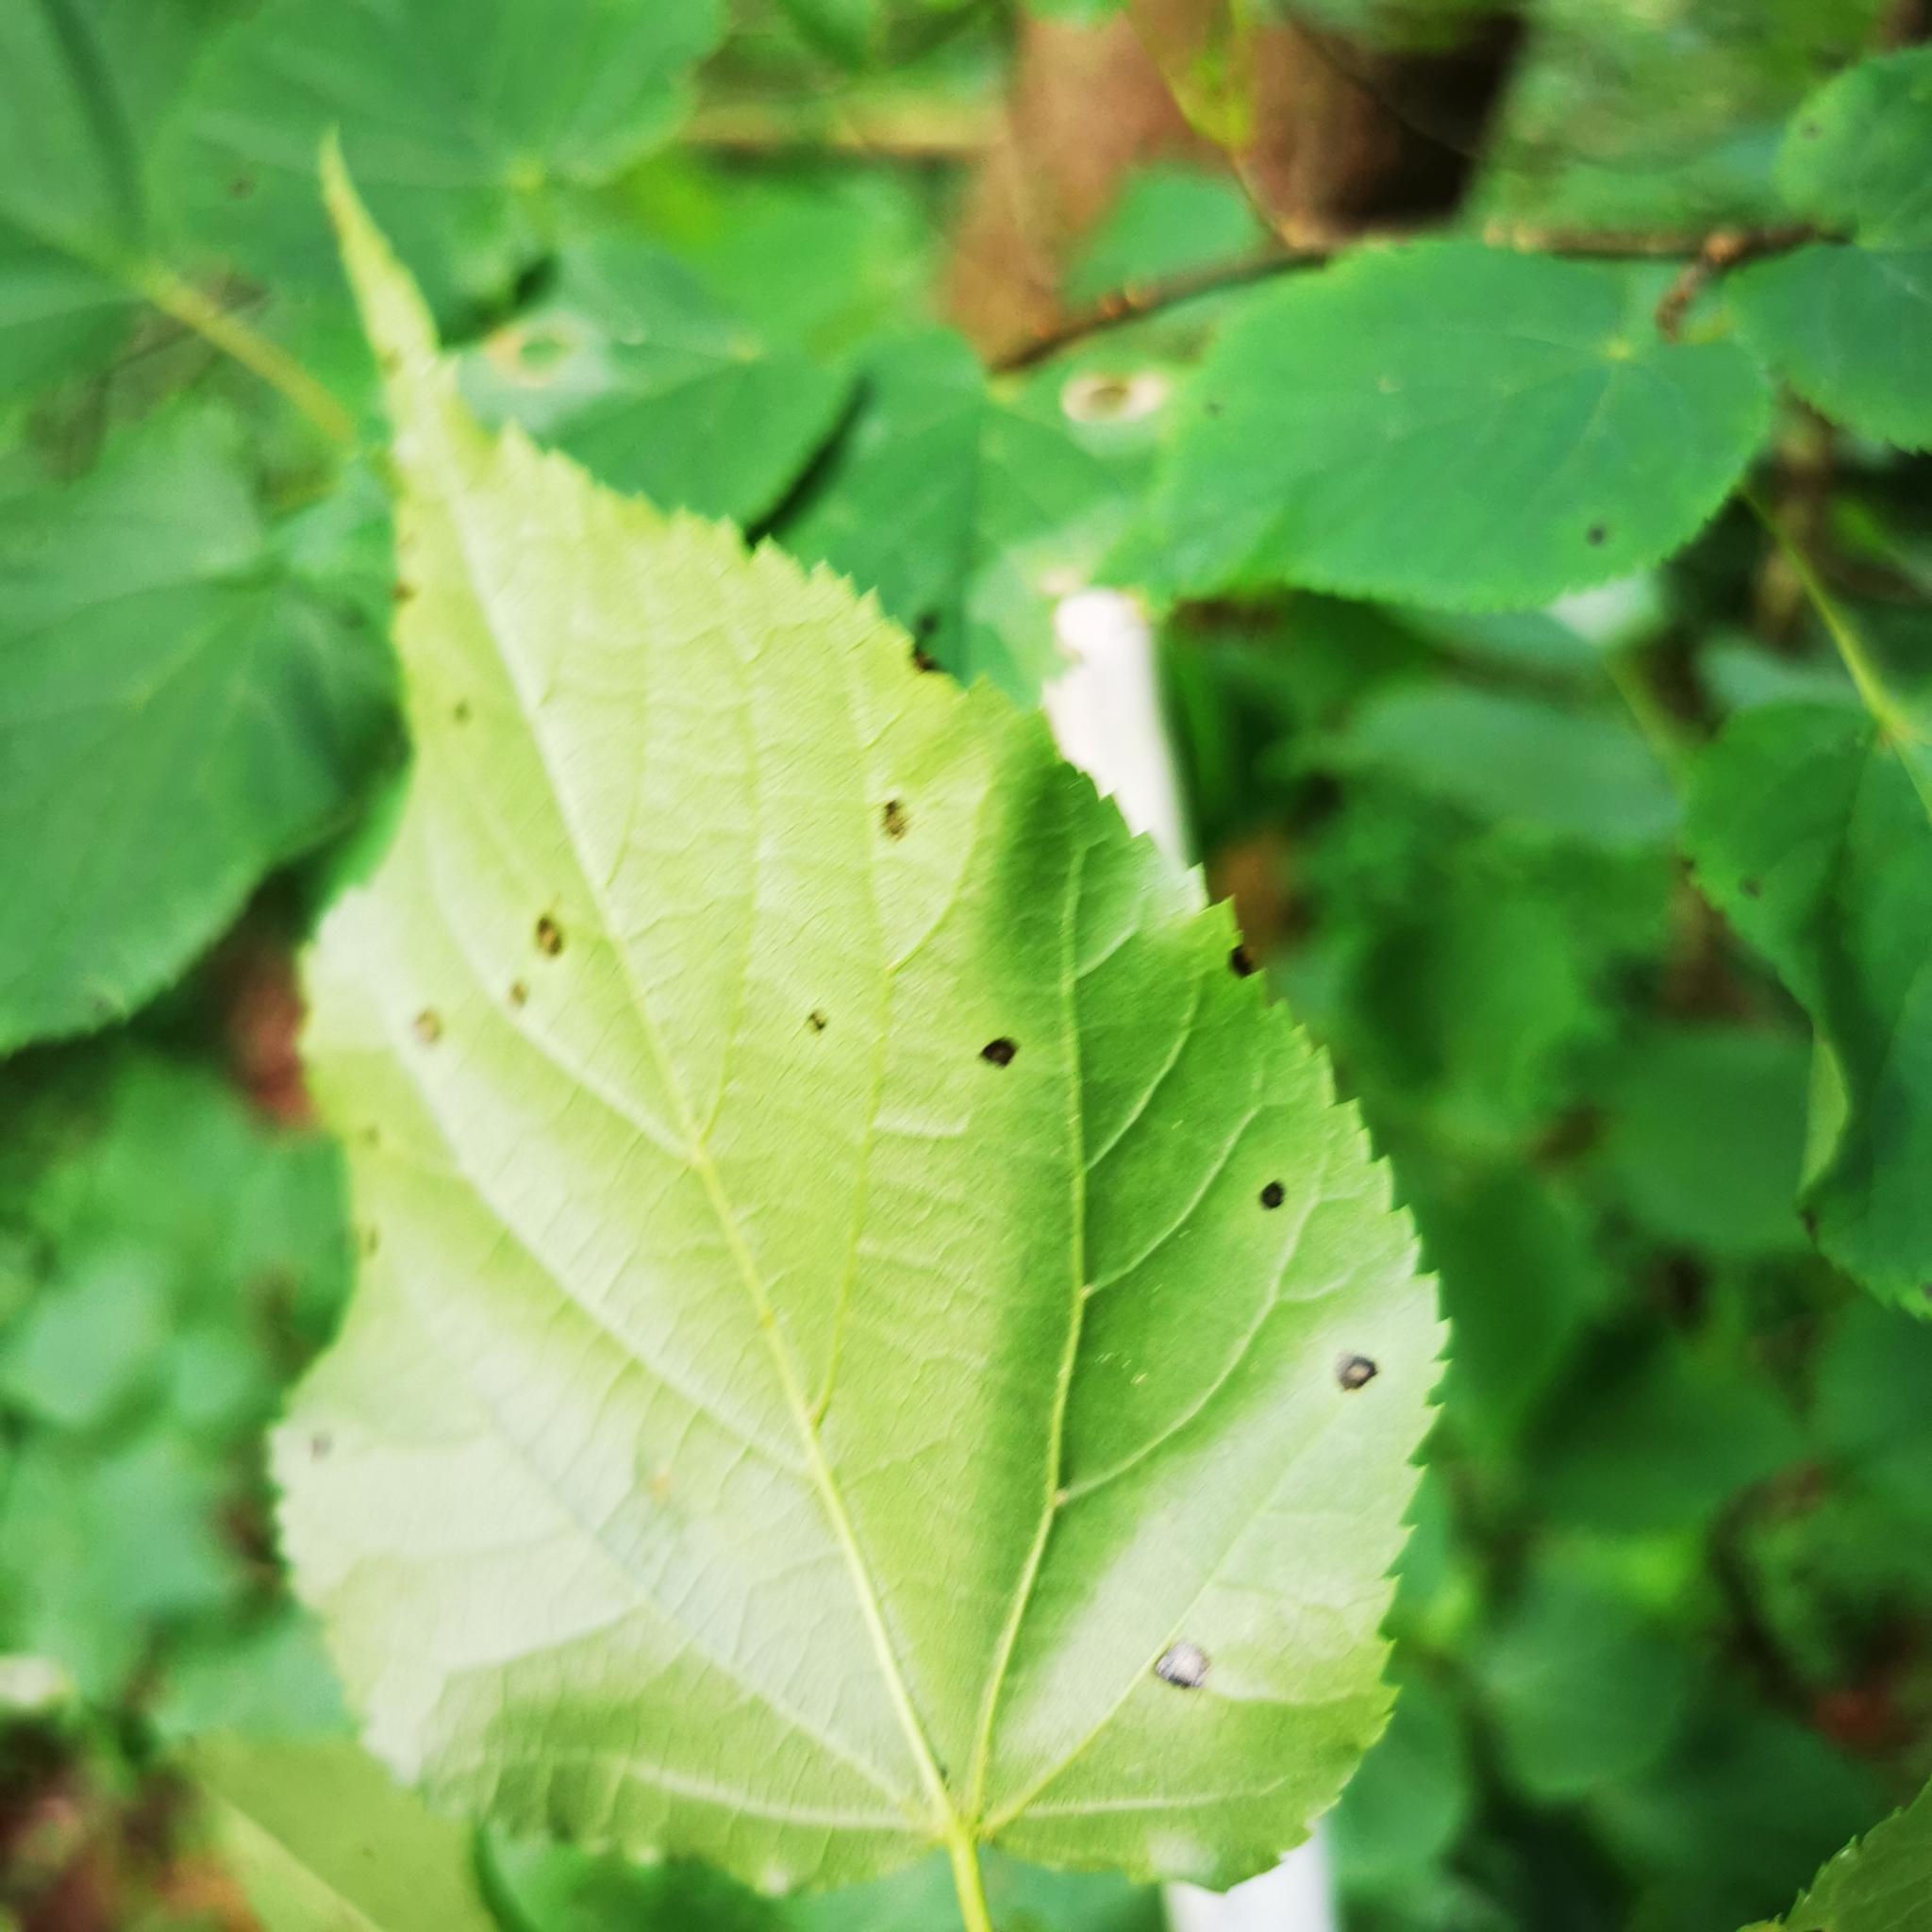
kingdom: Plantae
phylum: Tracheophyta
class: Magnoliopsida
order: Malvales
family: Malvaceae
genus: Tilia
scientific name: Tilia cordata
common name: Small-leaved lime
